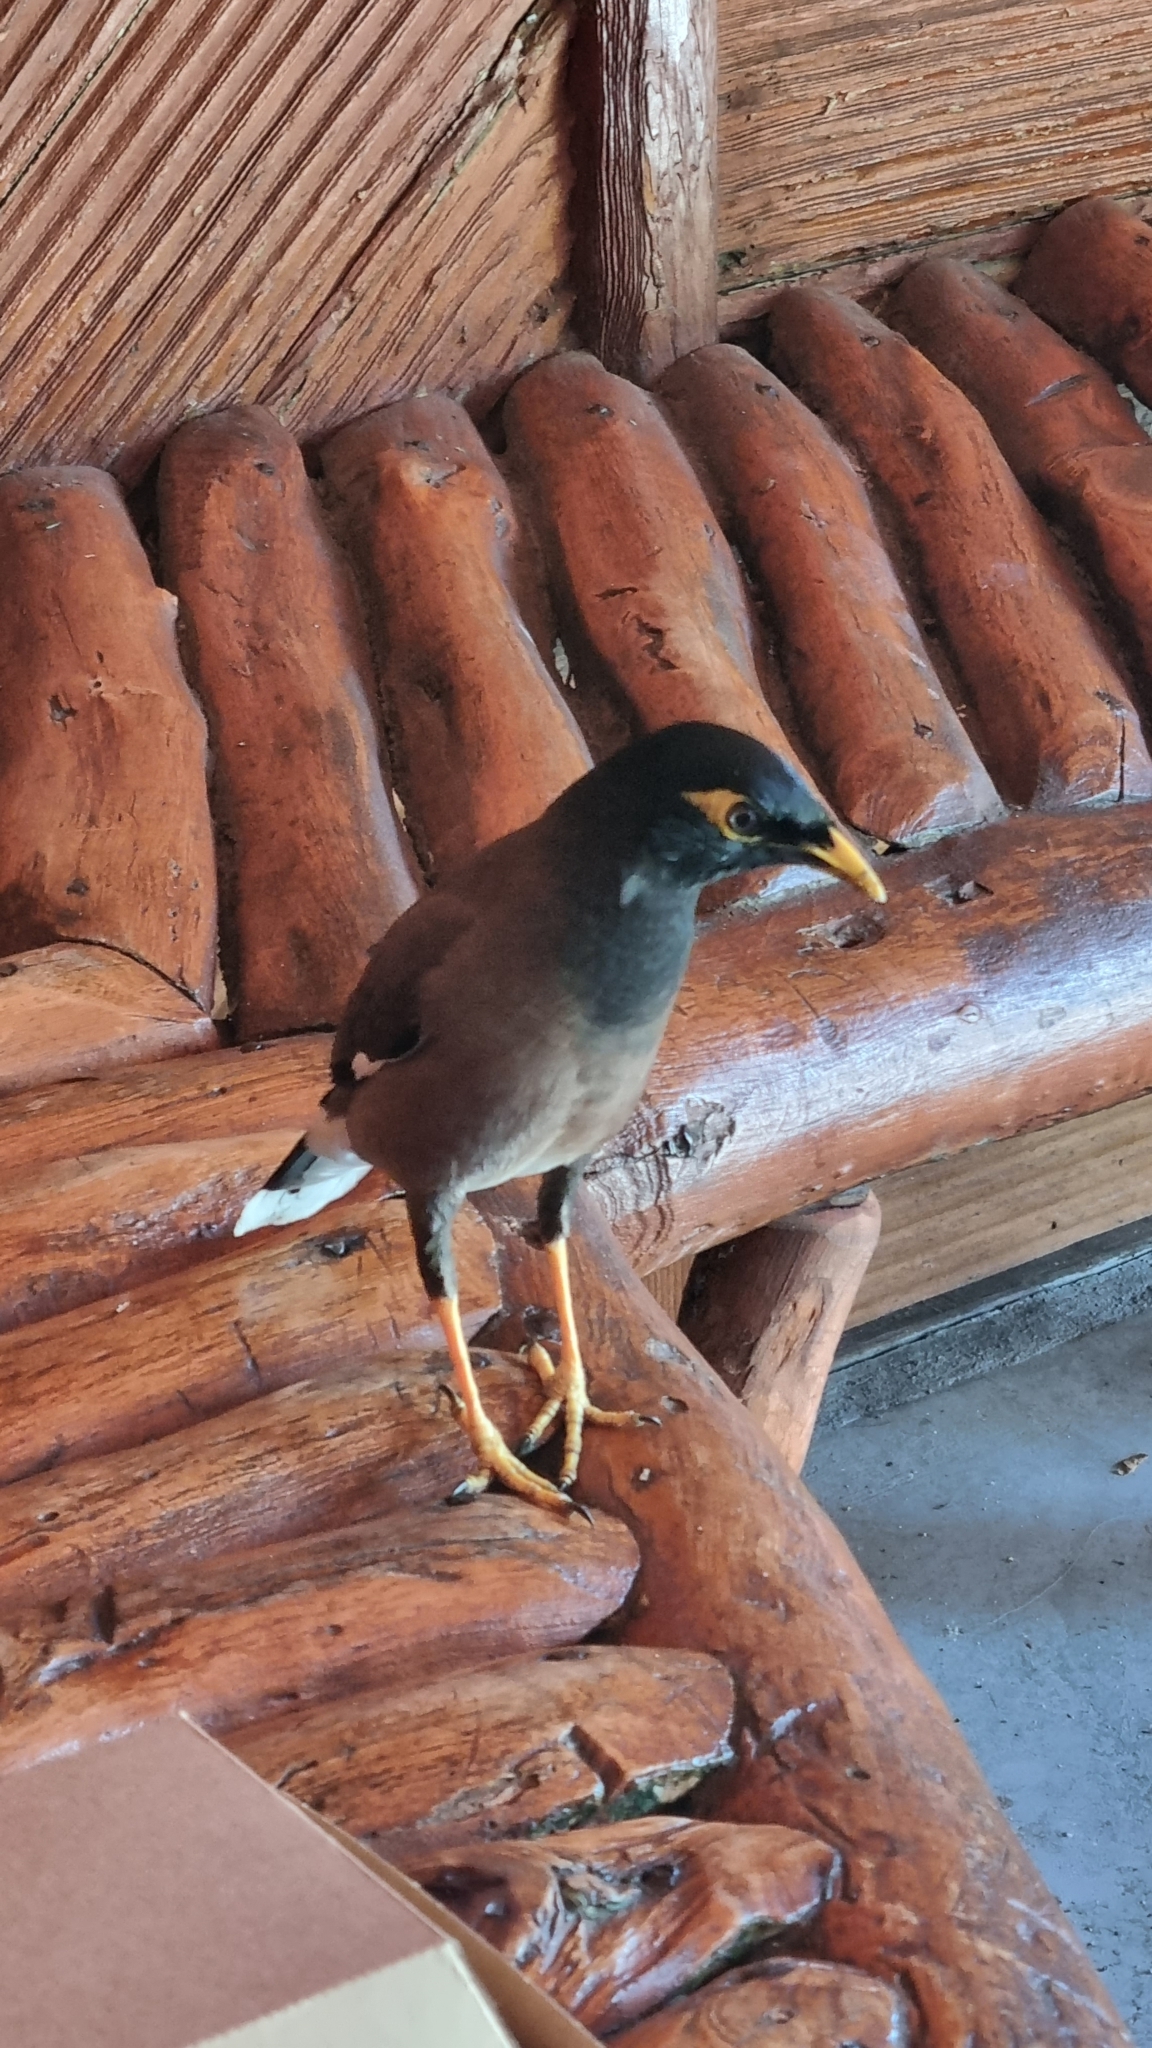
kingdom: Animalia
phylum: Chordata
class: Aves
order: Passeriformes
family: Sturnidae
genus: Acridotheres
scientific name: Acridotheres tristis
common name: Common myna
